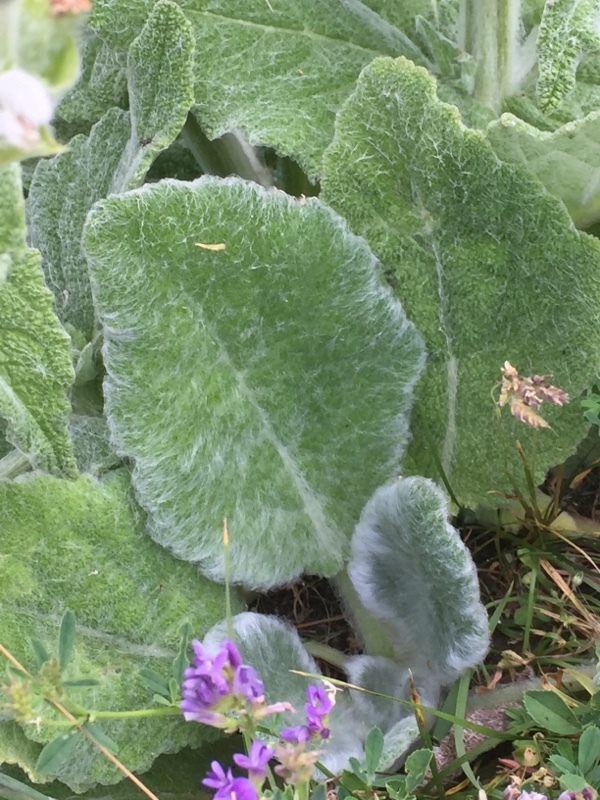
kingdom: Plantae
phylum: Tracheophyta
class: Magnoliopsida
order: Lamiales
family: Lamiaceae
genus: Salvia
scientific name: Salvia aethiopis
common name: Mediterranean sage
